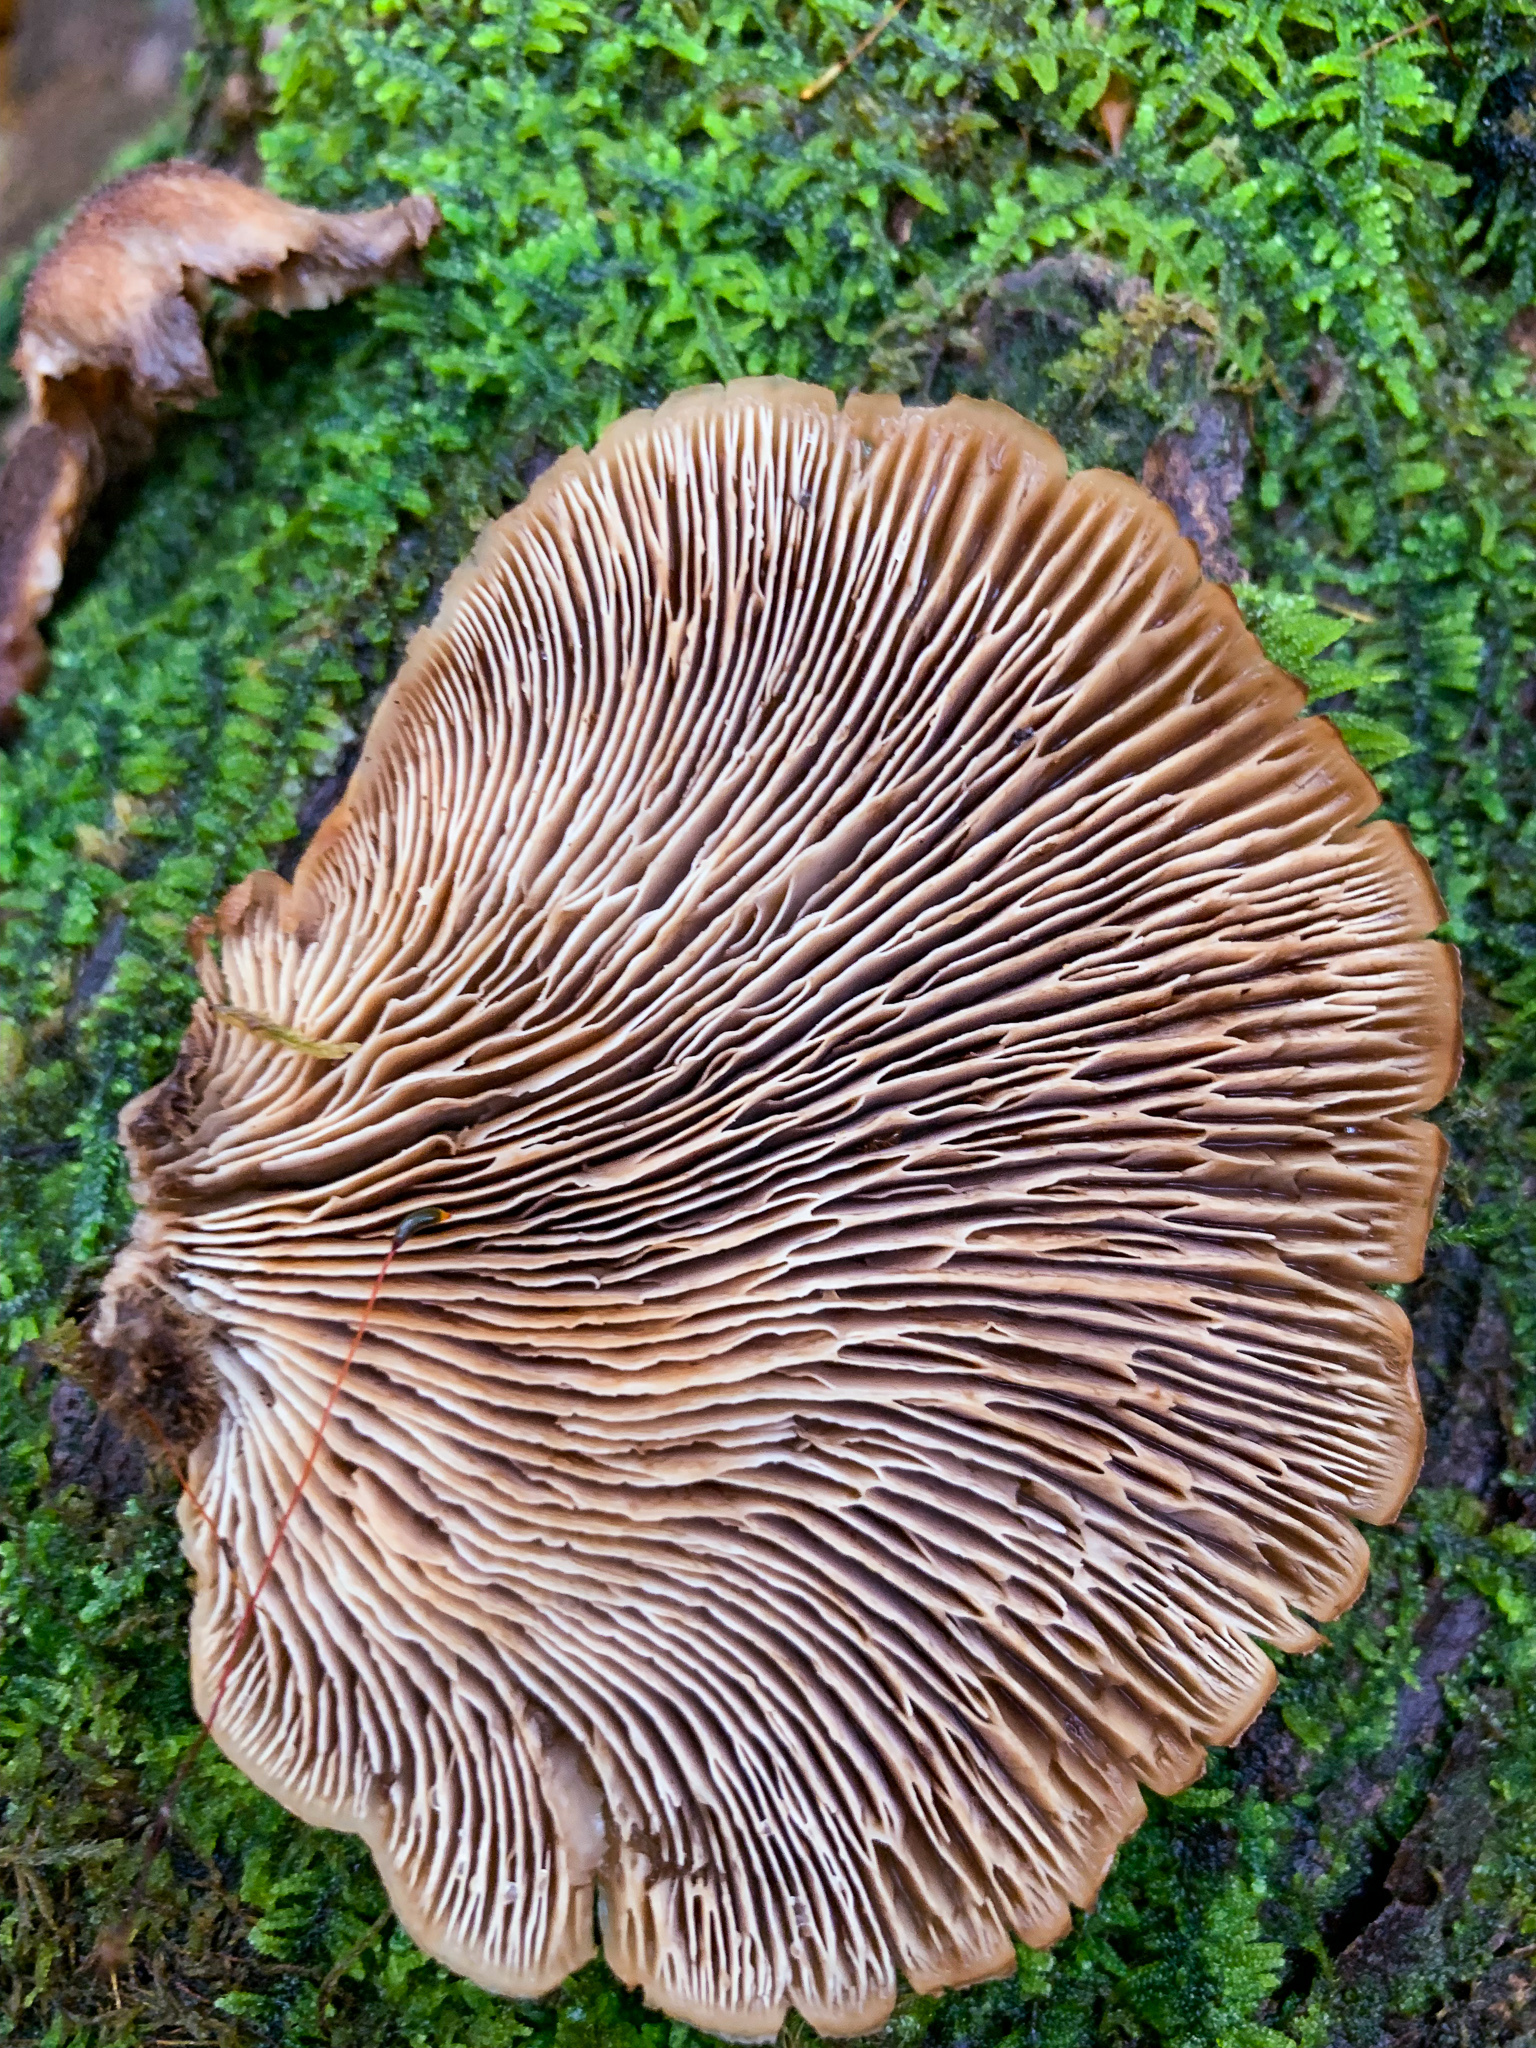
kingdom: Fungi
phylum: Basidiomycota
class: Agaricomycetes
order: Russulales
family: Auriscalpiaceae
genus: Lentinellus
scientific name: Lentinellus ursinus
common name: Bear lentinus
